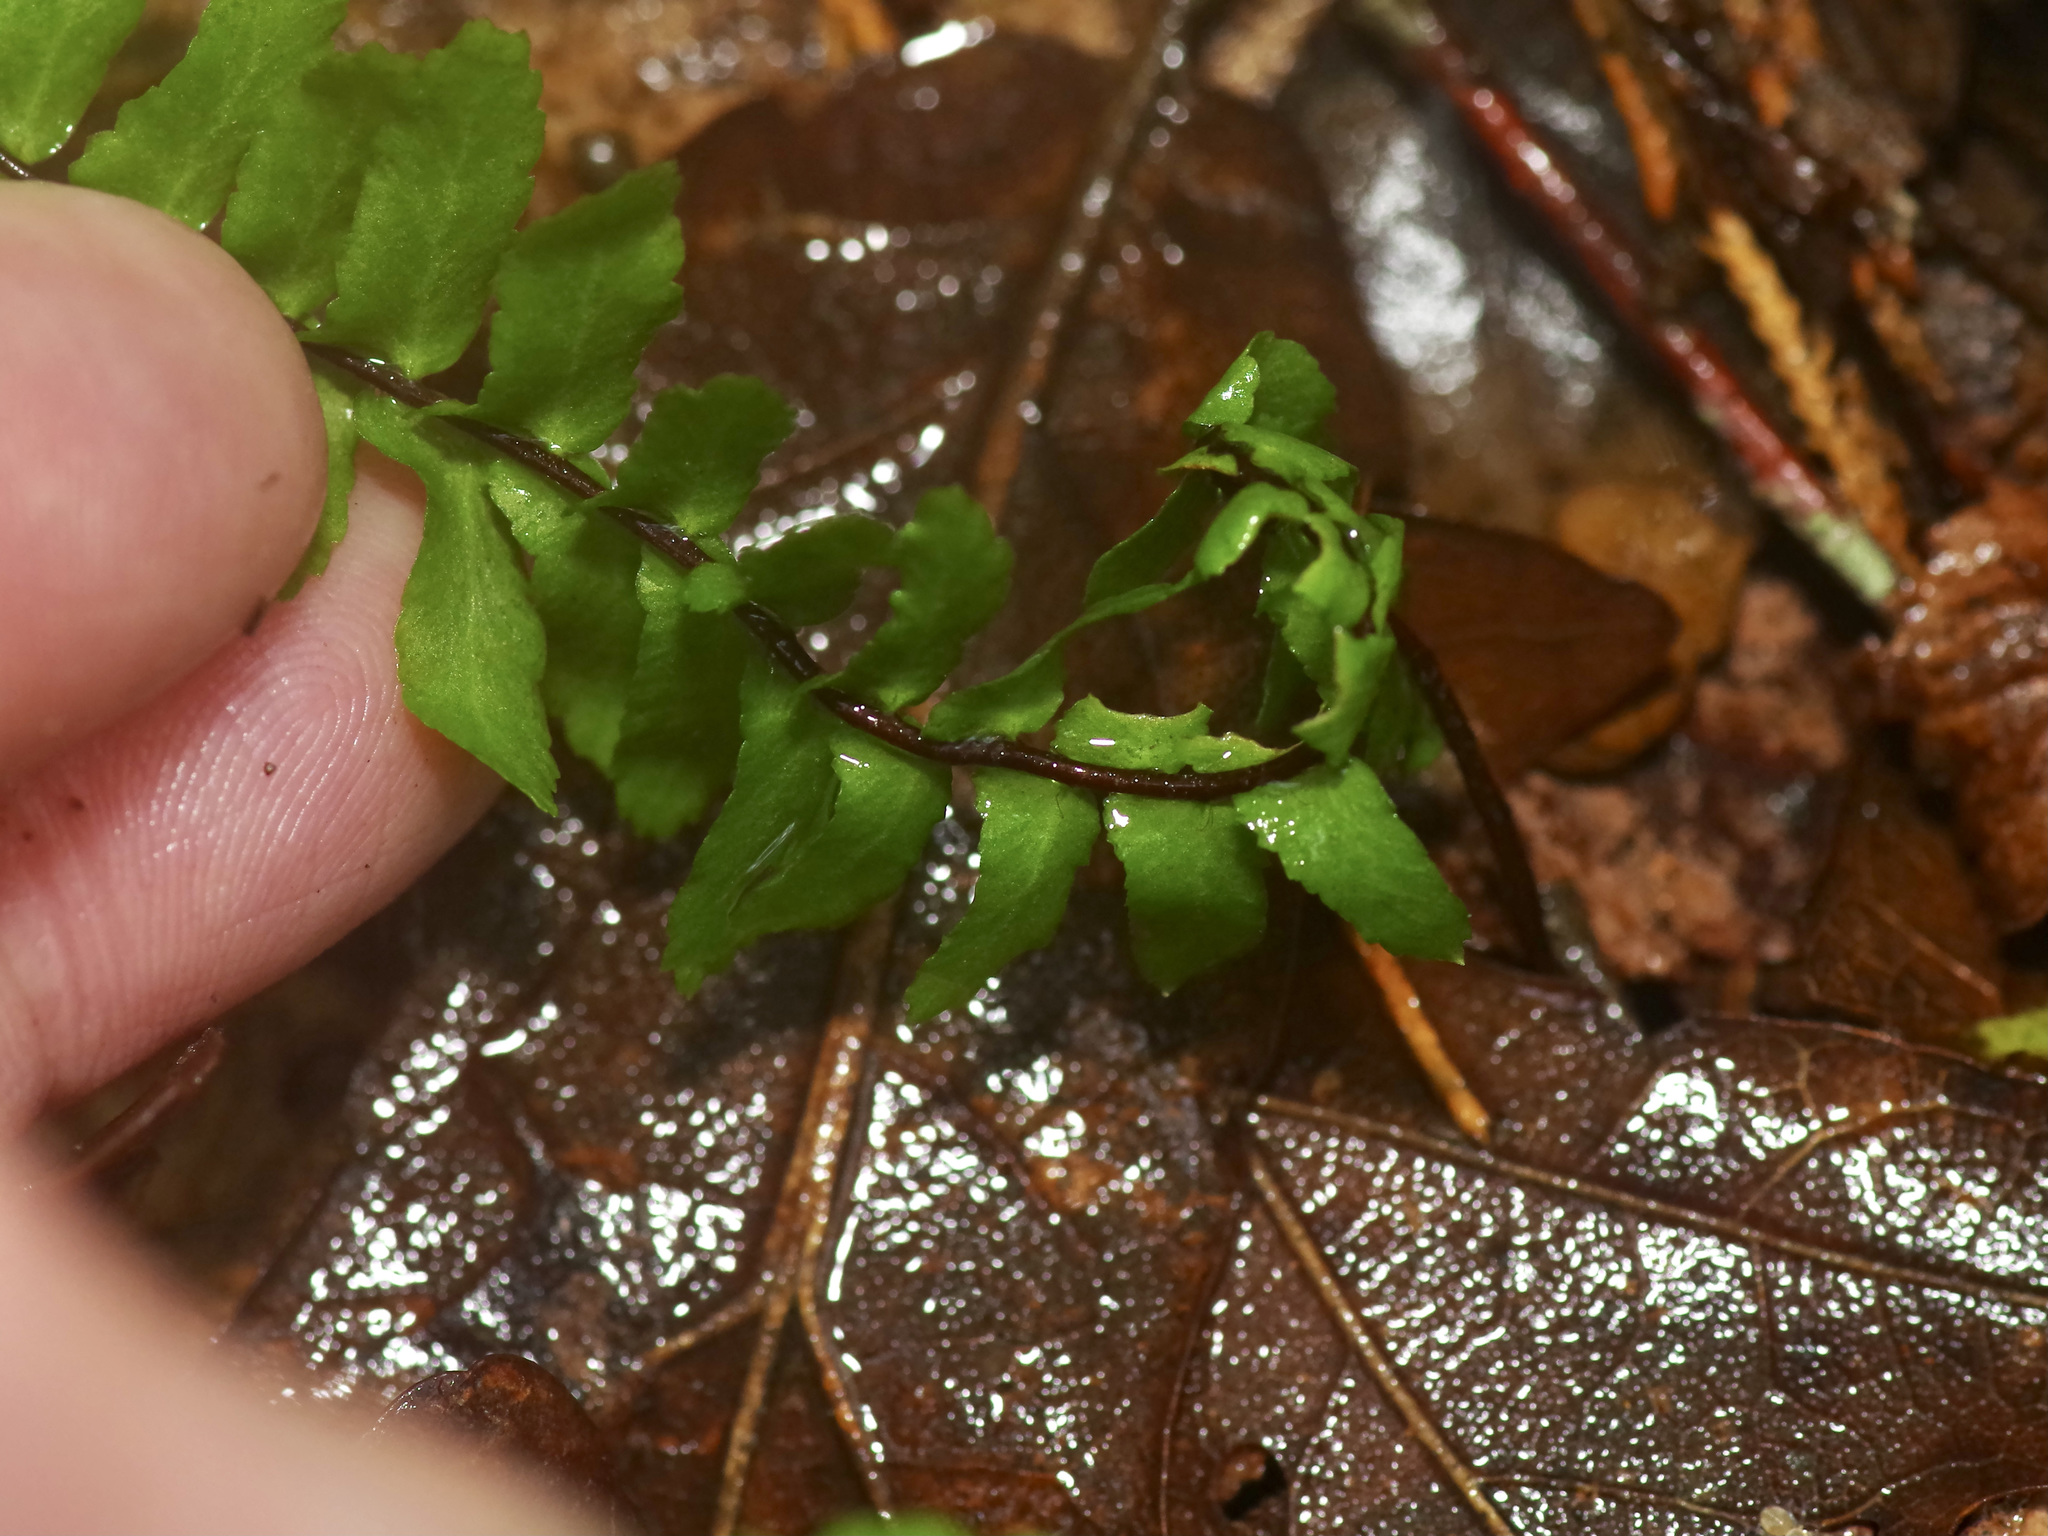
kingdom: Plantae
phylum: Tracheophyta
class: Polypodiopsida
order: Polypodiales
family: Aspleniaceae
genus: Asplenium
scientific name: Asplenium platyneuron
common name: Ebony spleenwort
